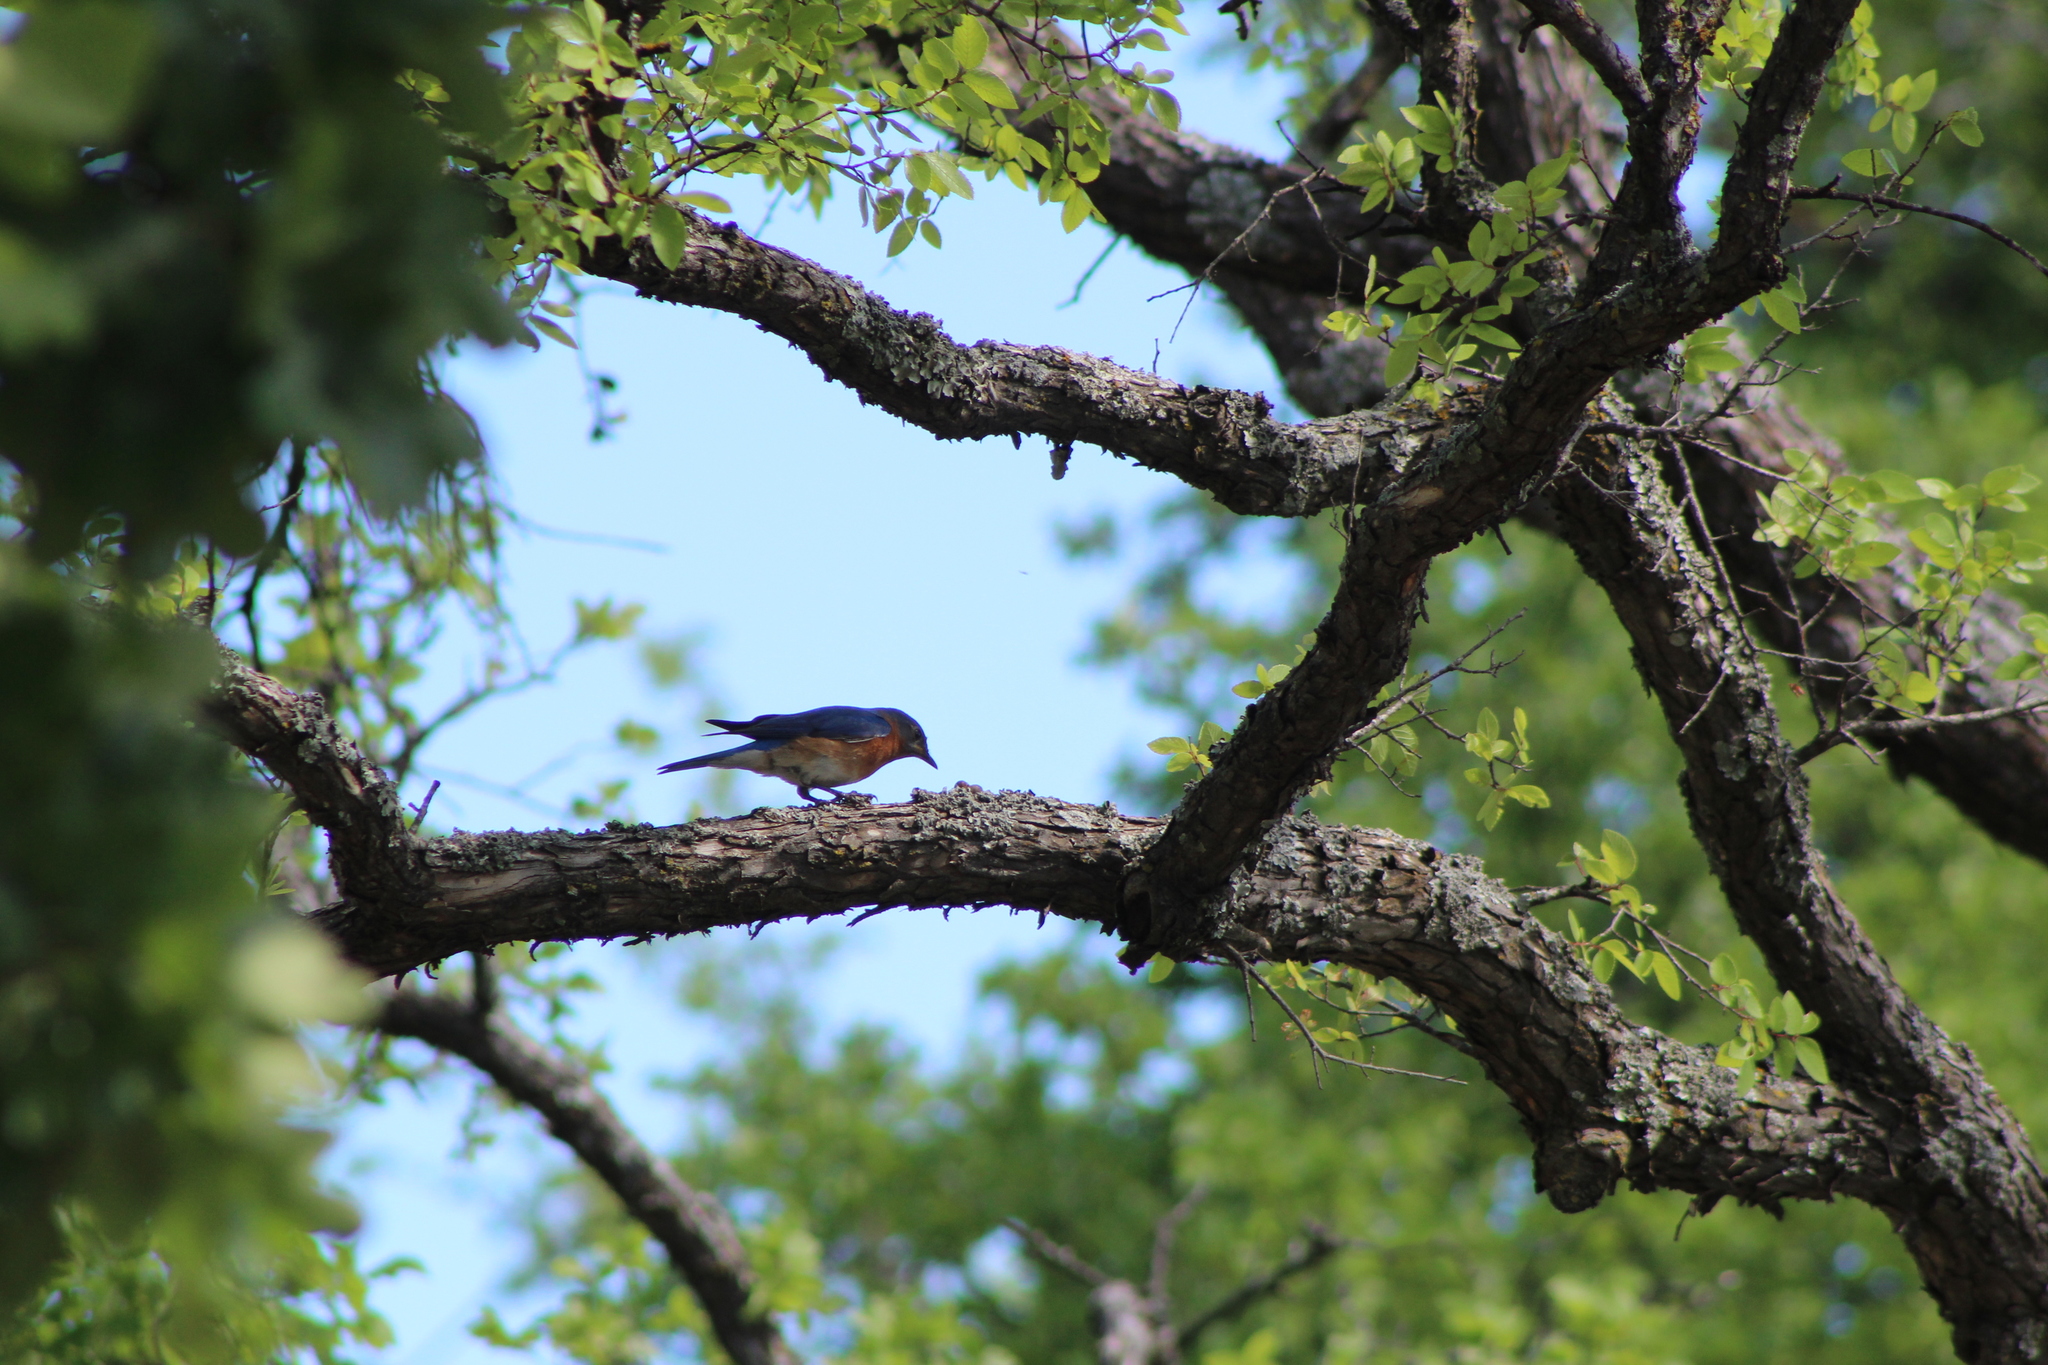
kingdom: Animalia
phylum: Chordata
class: Aves
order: Passeriformes
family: Turdidae
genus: Sialia
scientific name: Sialia sialis
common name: Eastern bluebird
